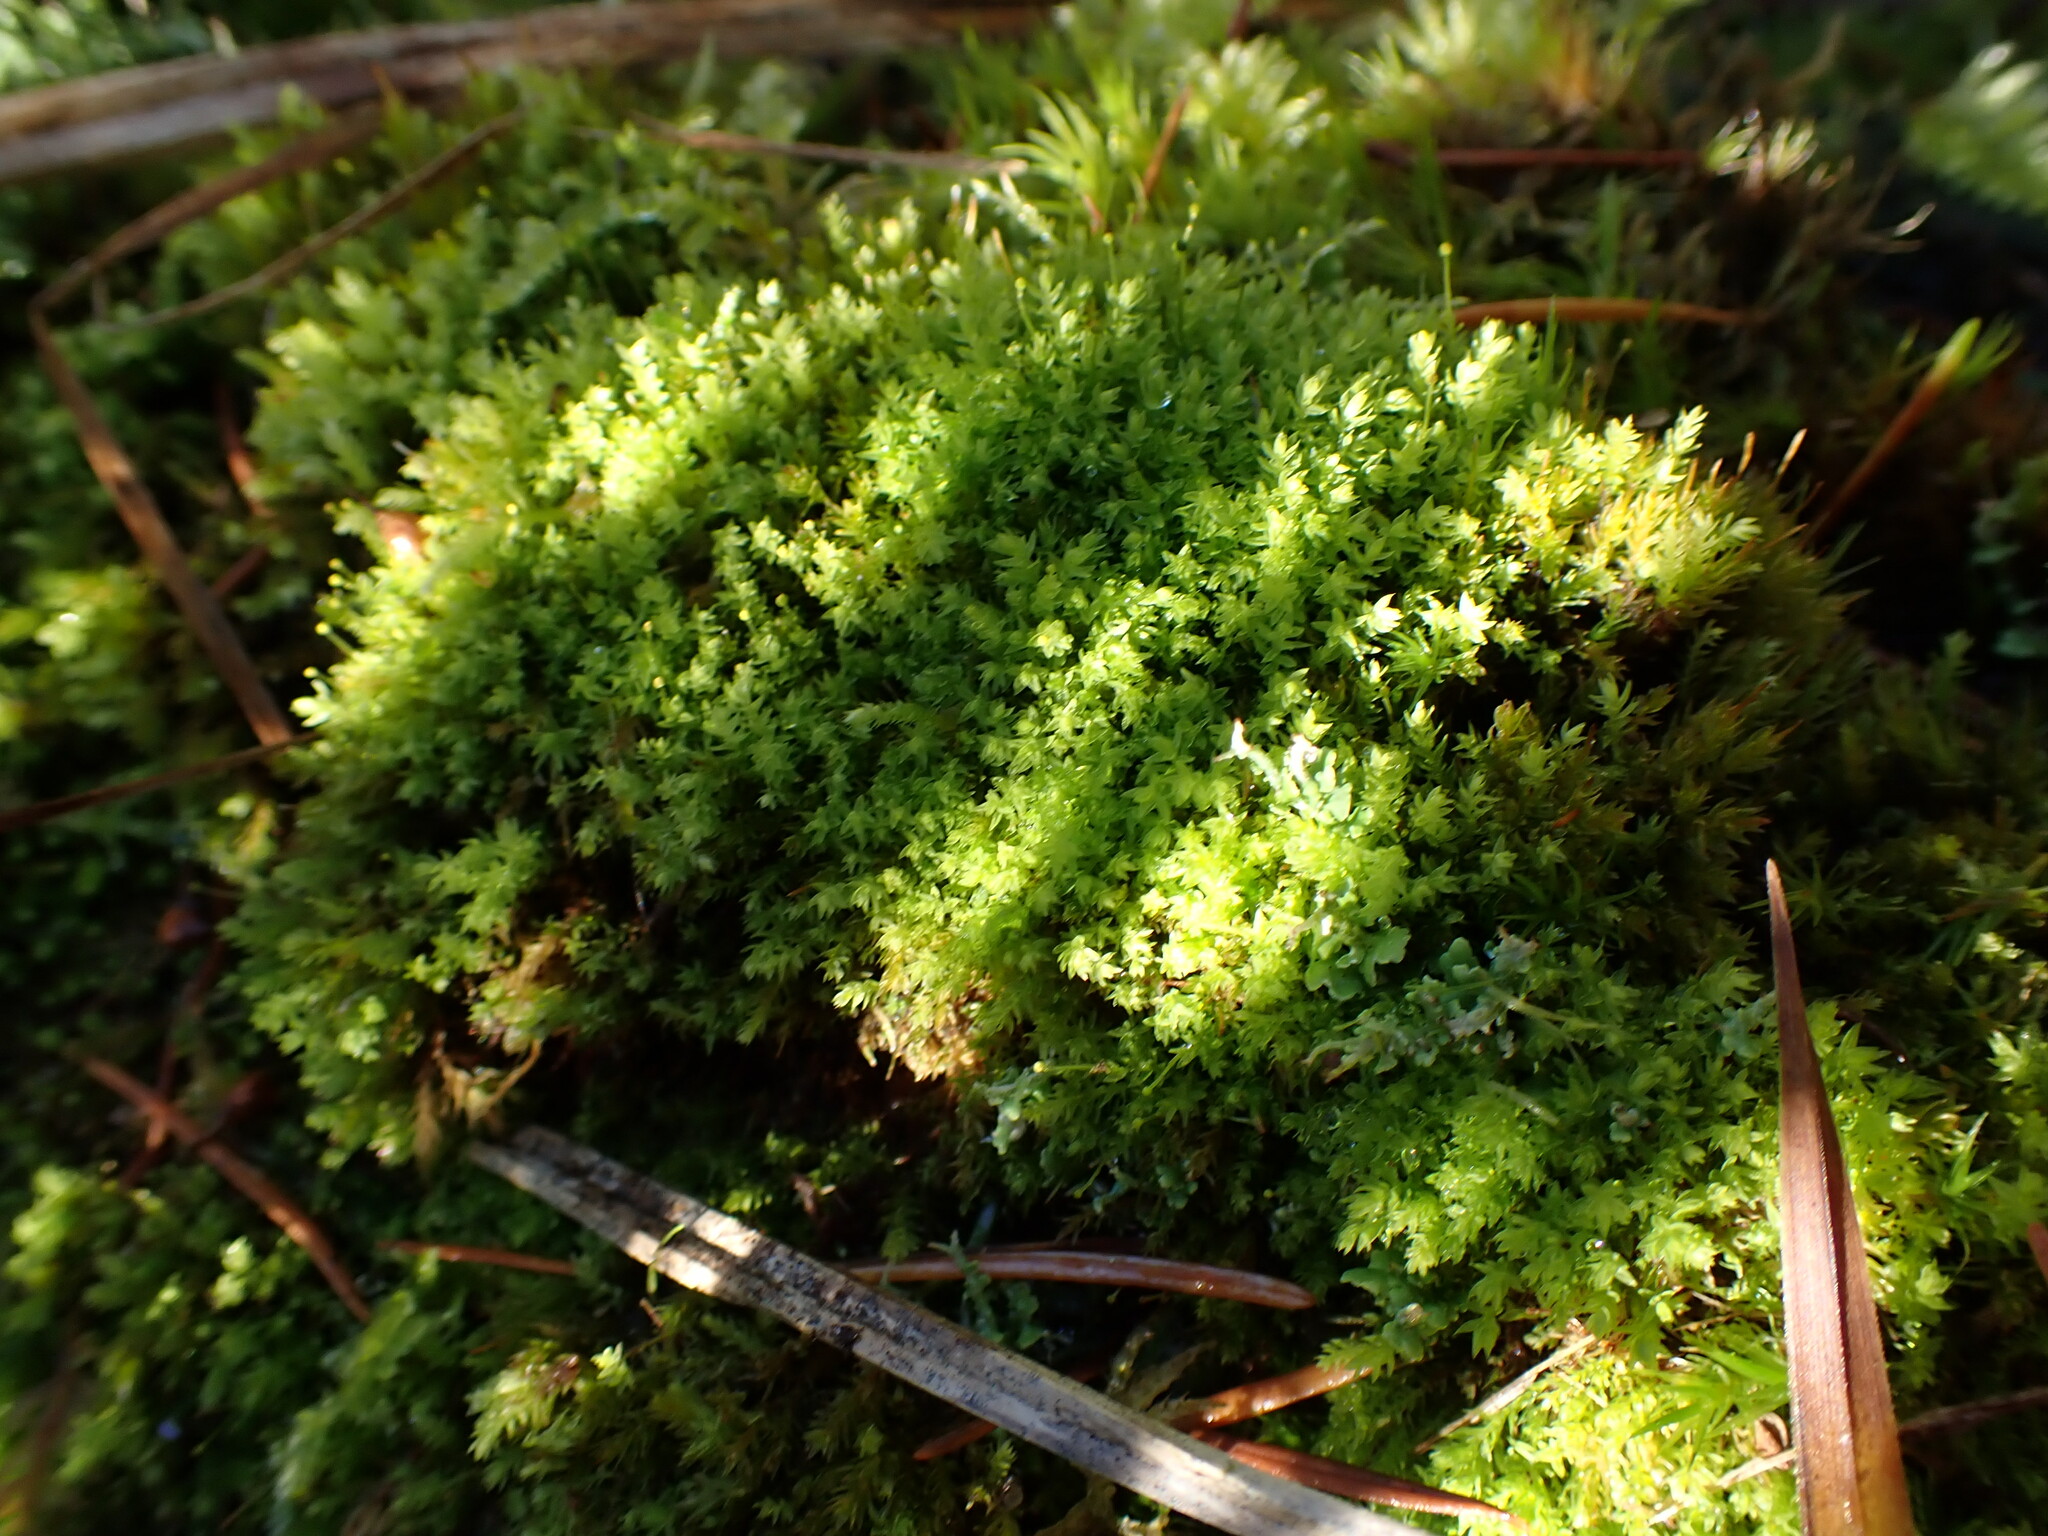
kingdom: Plantae
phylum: Bryophyta
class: Bryopsida
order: Aulacomniales
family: Aulacomniaceae
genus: Aulacomnium
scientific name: Aulacomnium androgynum
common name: Little groove moss
